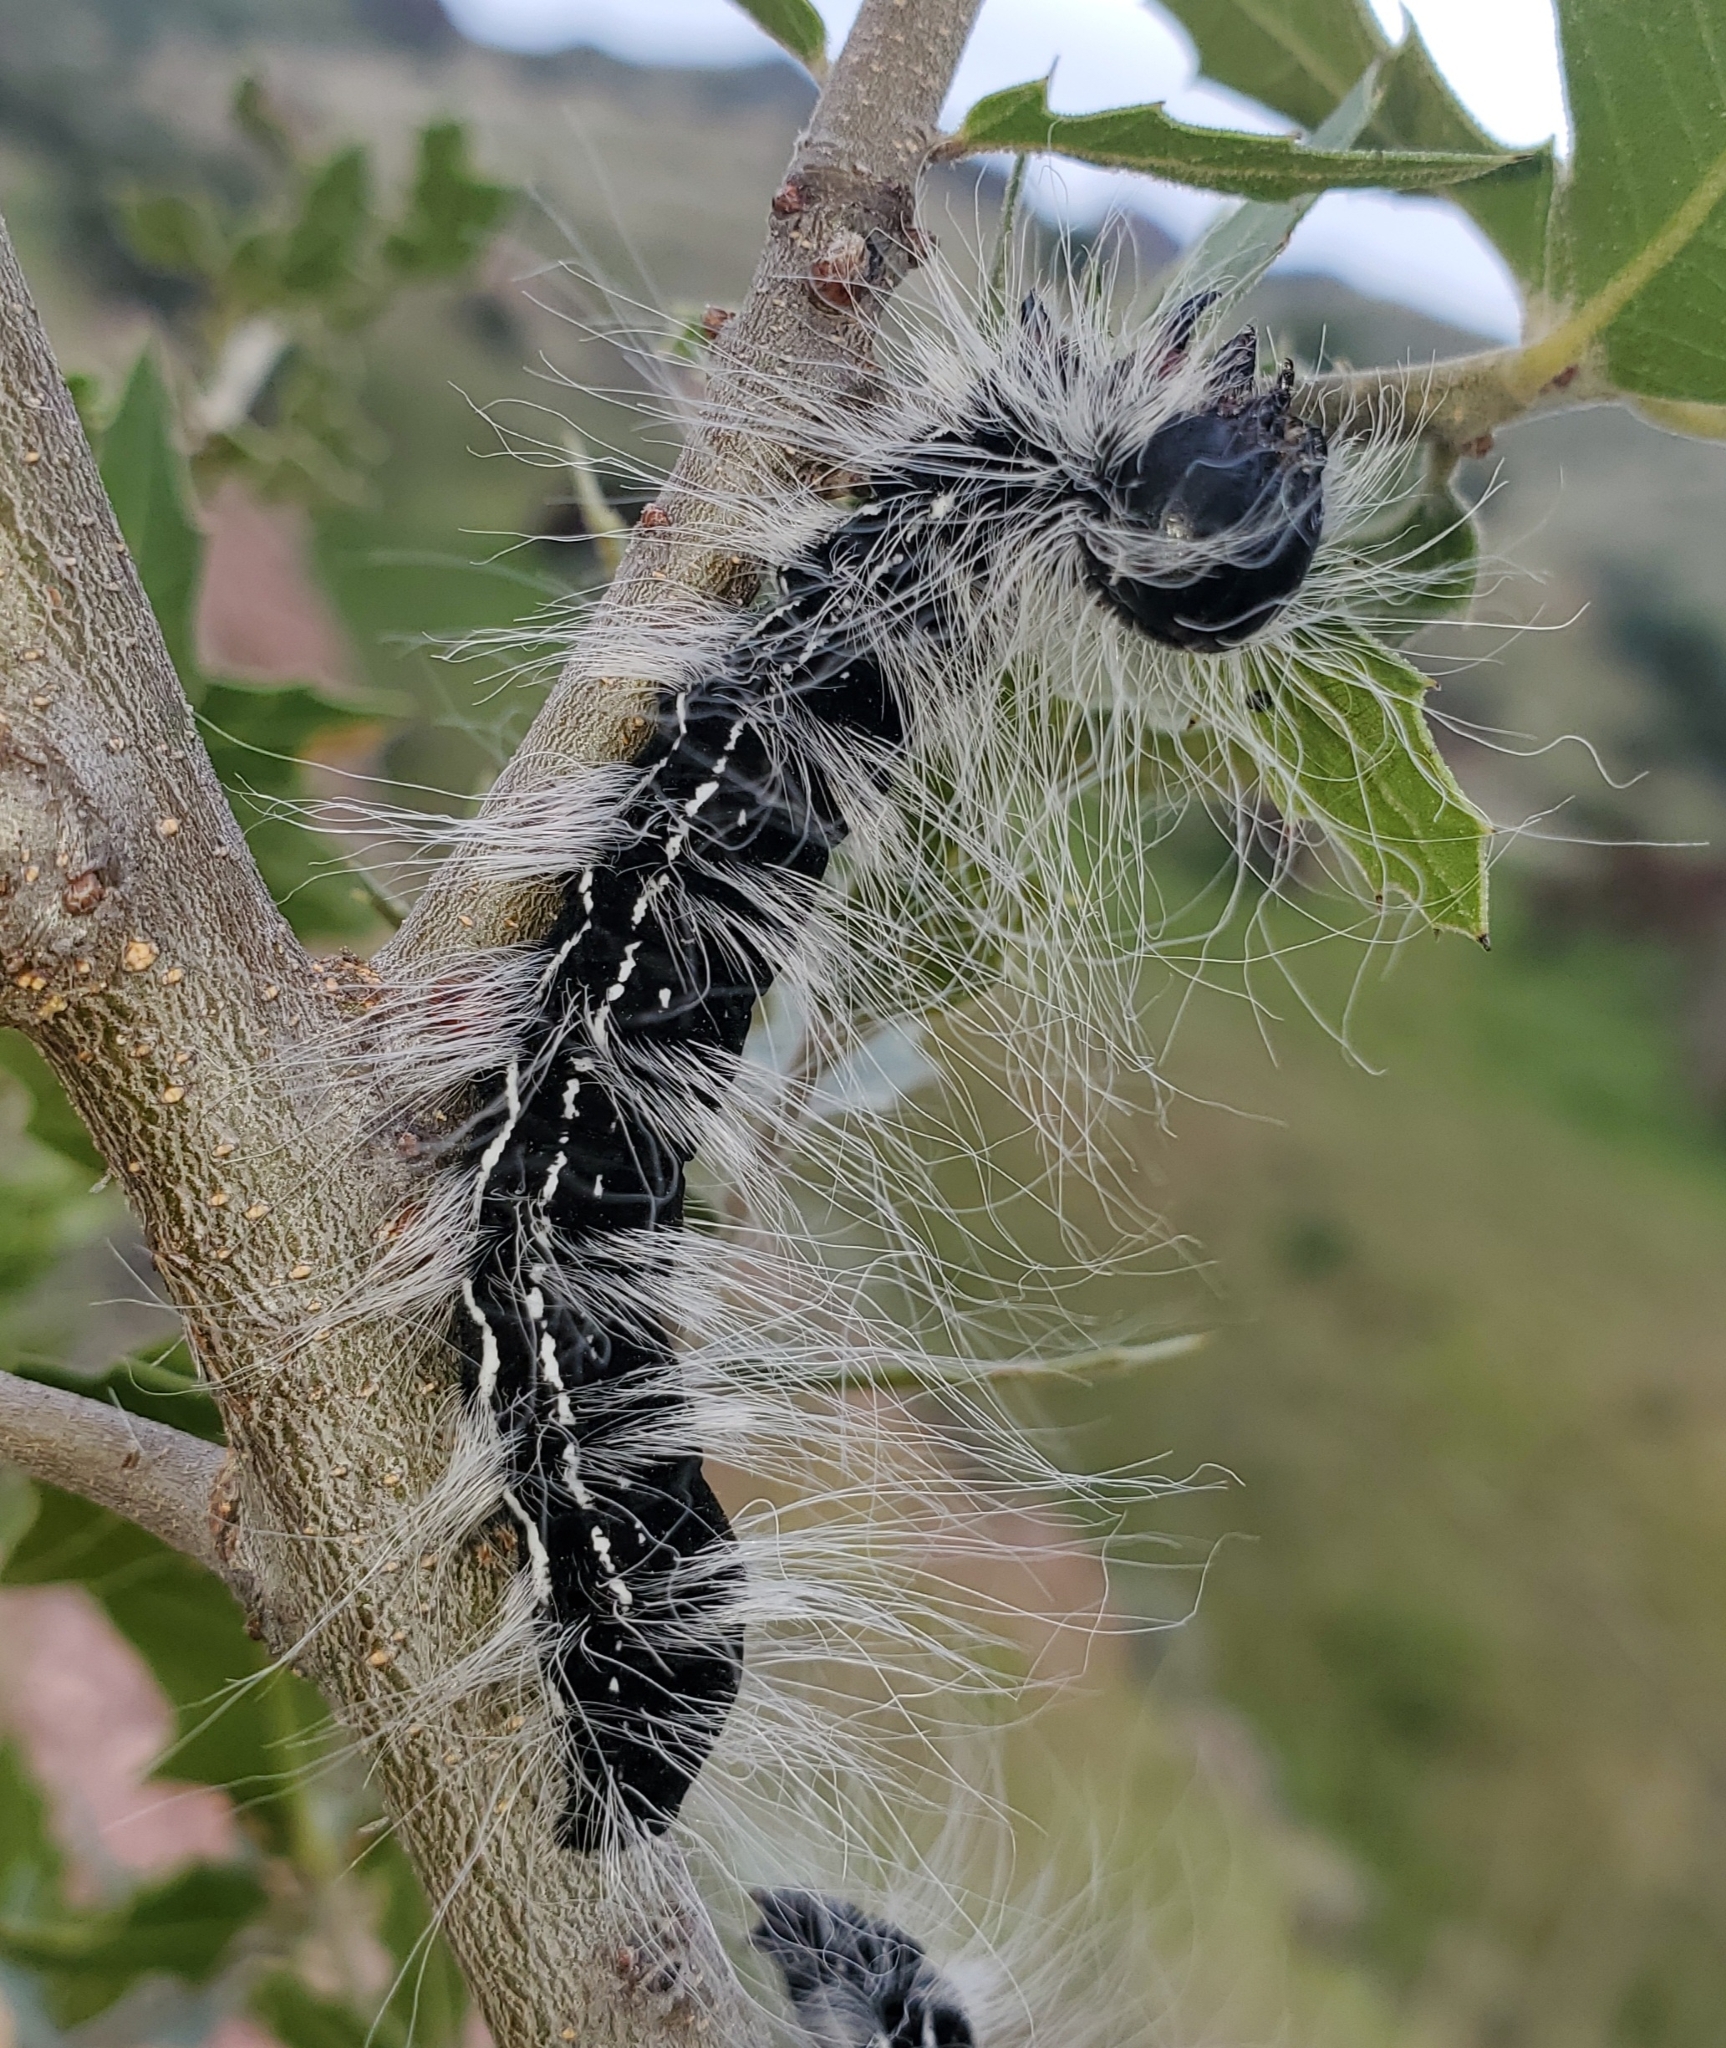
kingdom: Animalia
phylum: Arthropoda
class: Insecta
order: Lepidoptera
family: Notodontidae
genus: Datana
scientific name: Datana perfusa
